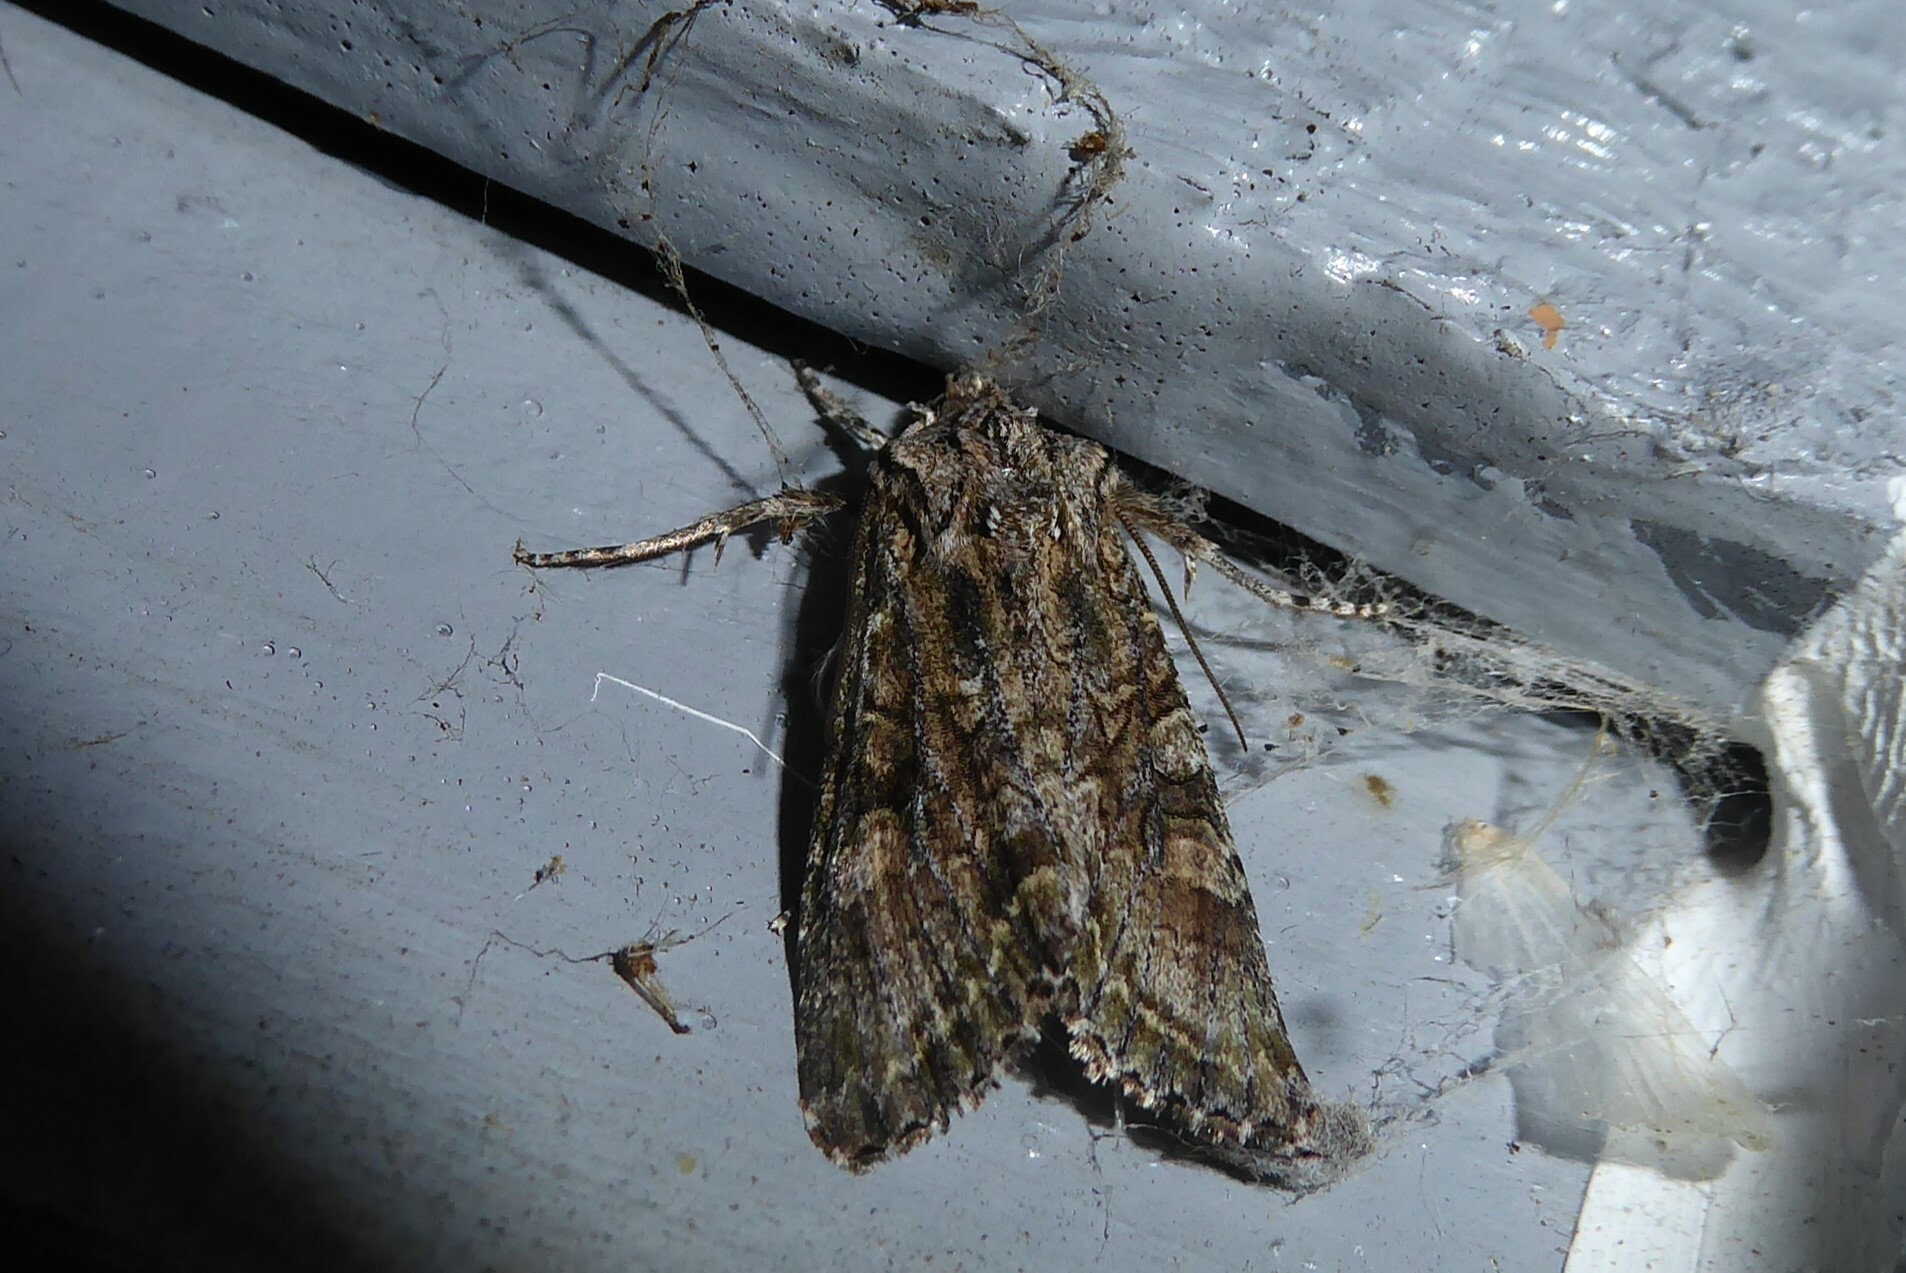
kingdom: Animalia
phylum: Arthropoda
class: Insecta
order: Lepidoptera
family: Noctuidae
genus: Ichneutica
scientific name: Ichneutica mutans
